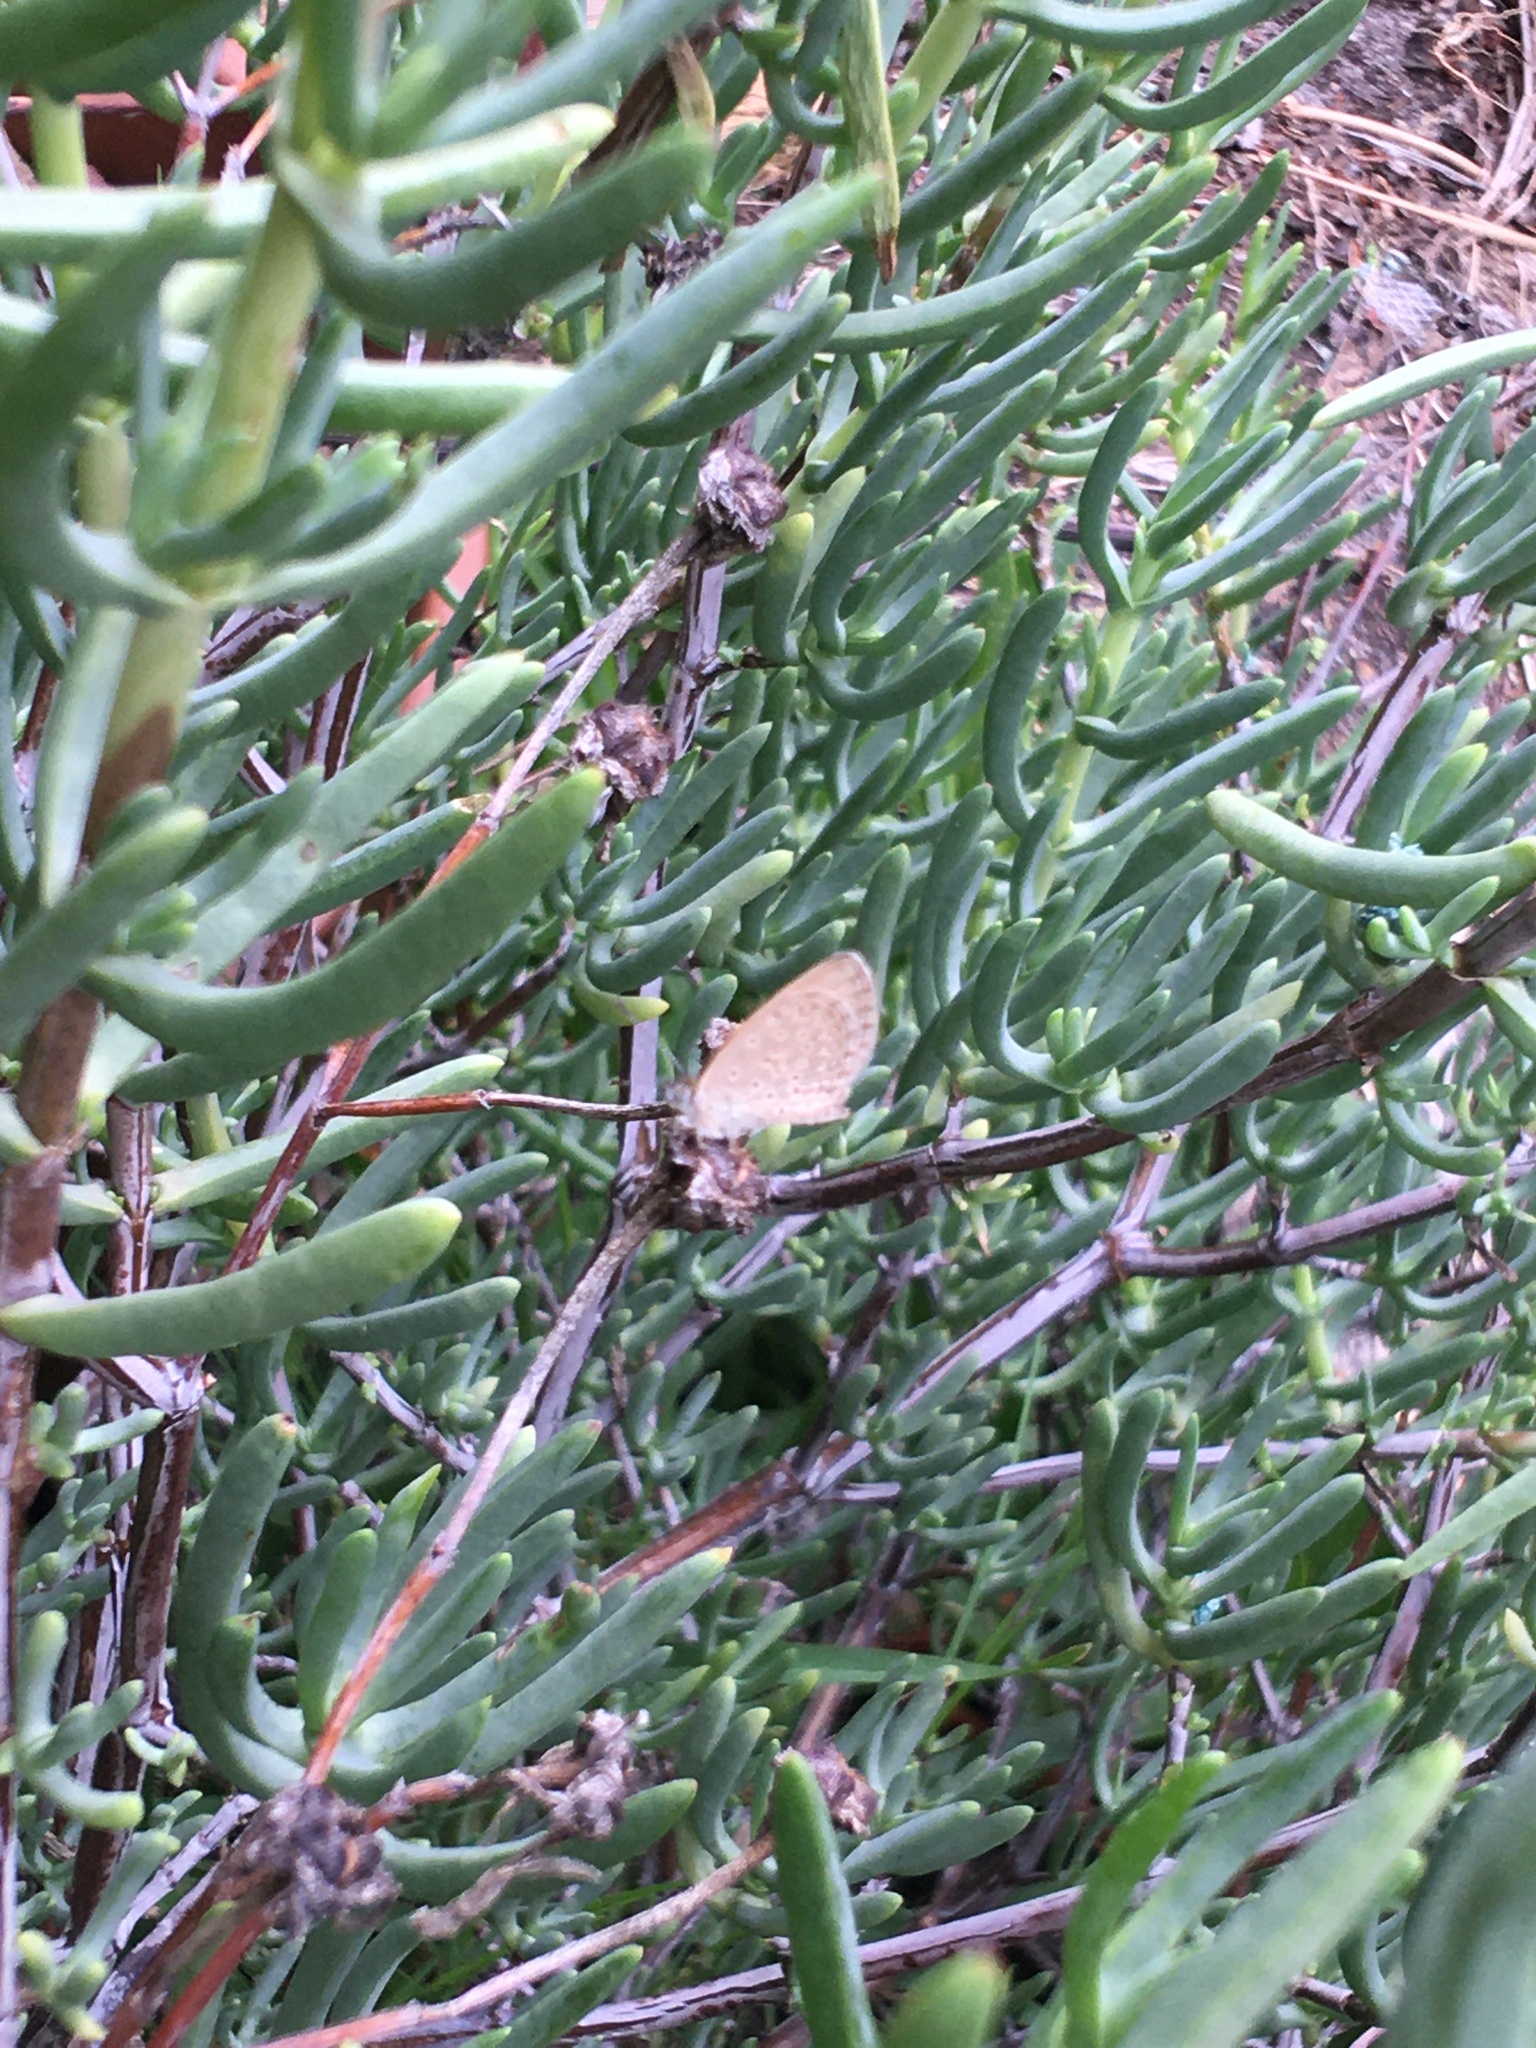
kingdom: Animalia
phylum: Arthropoda
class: Insecta
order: Lepidoptera
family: Lycaenidae
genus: Zizeeria
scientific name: Zizeeria knysna
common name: African grass blue
